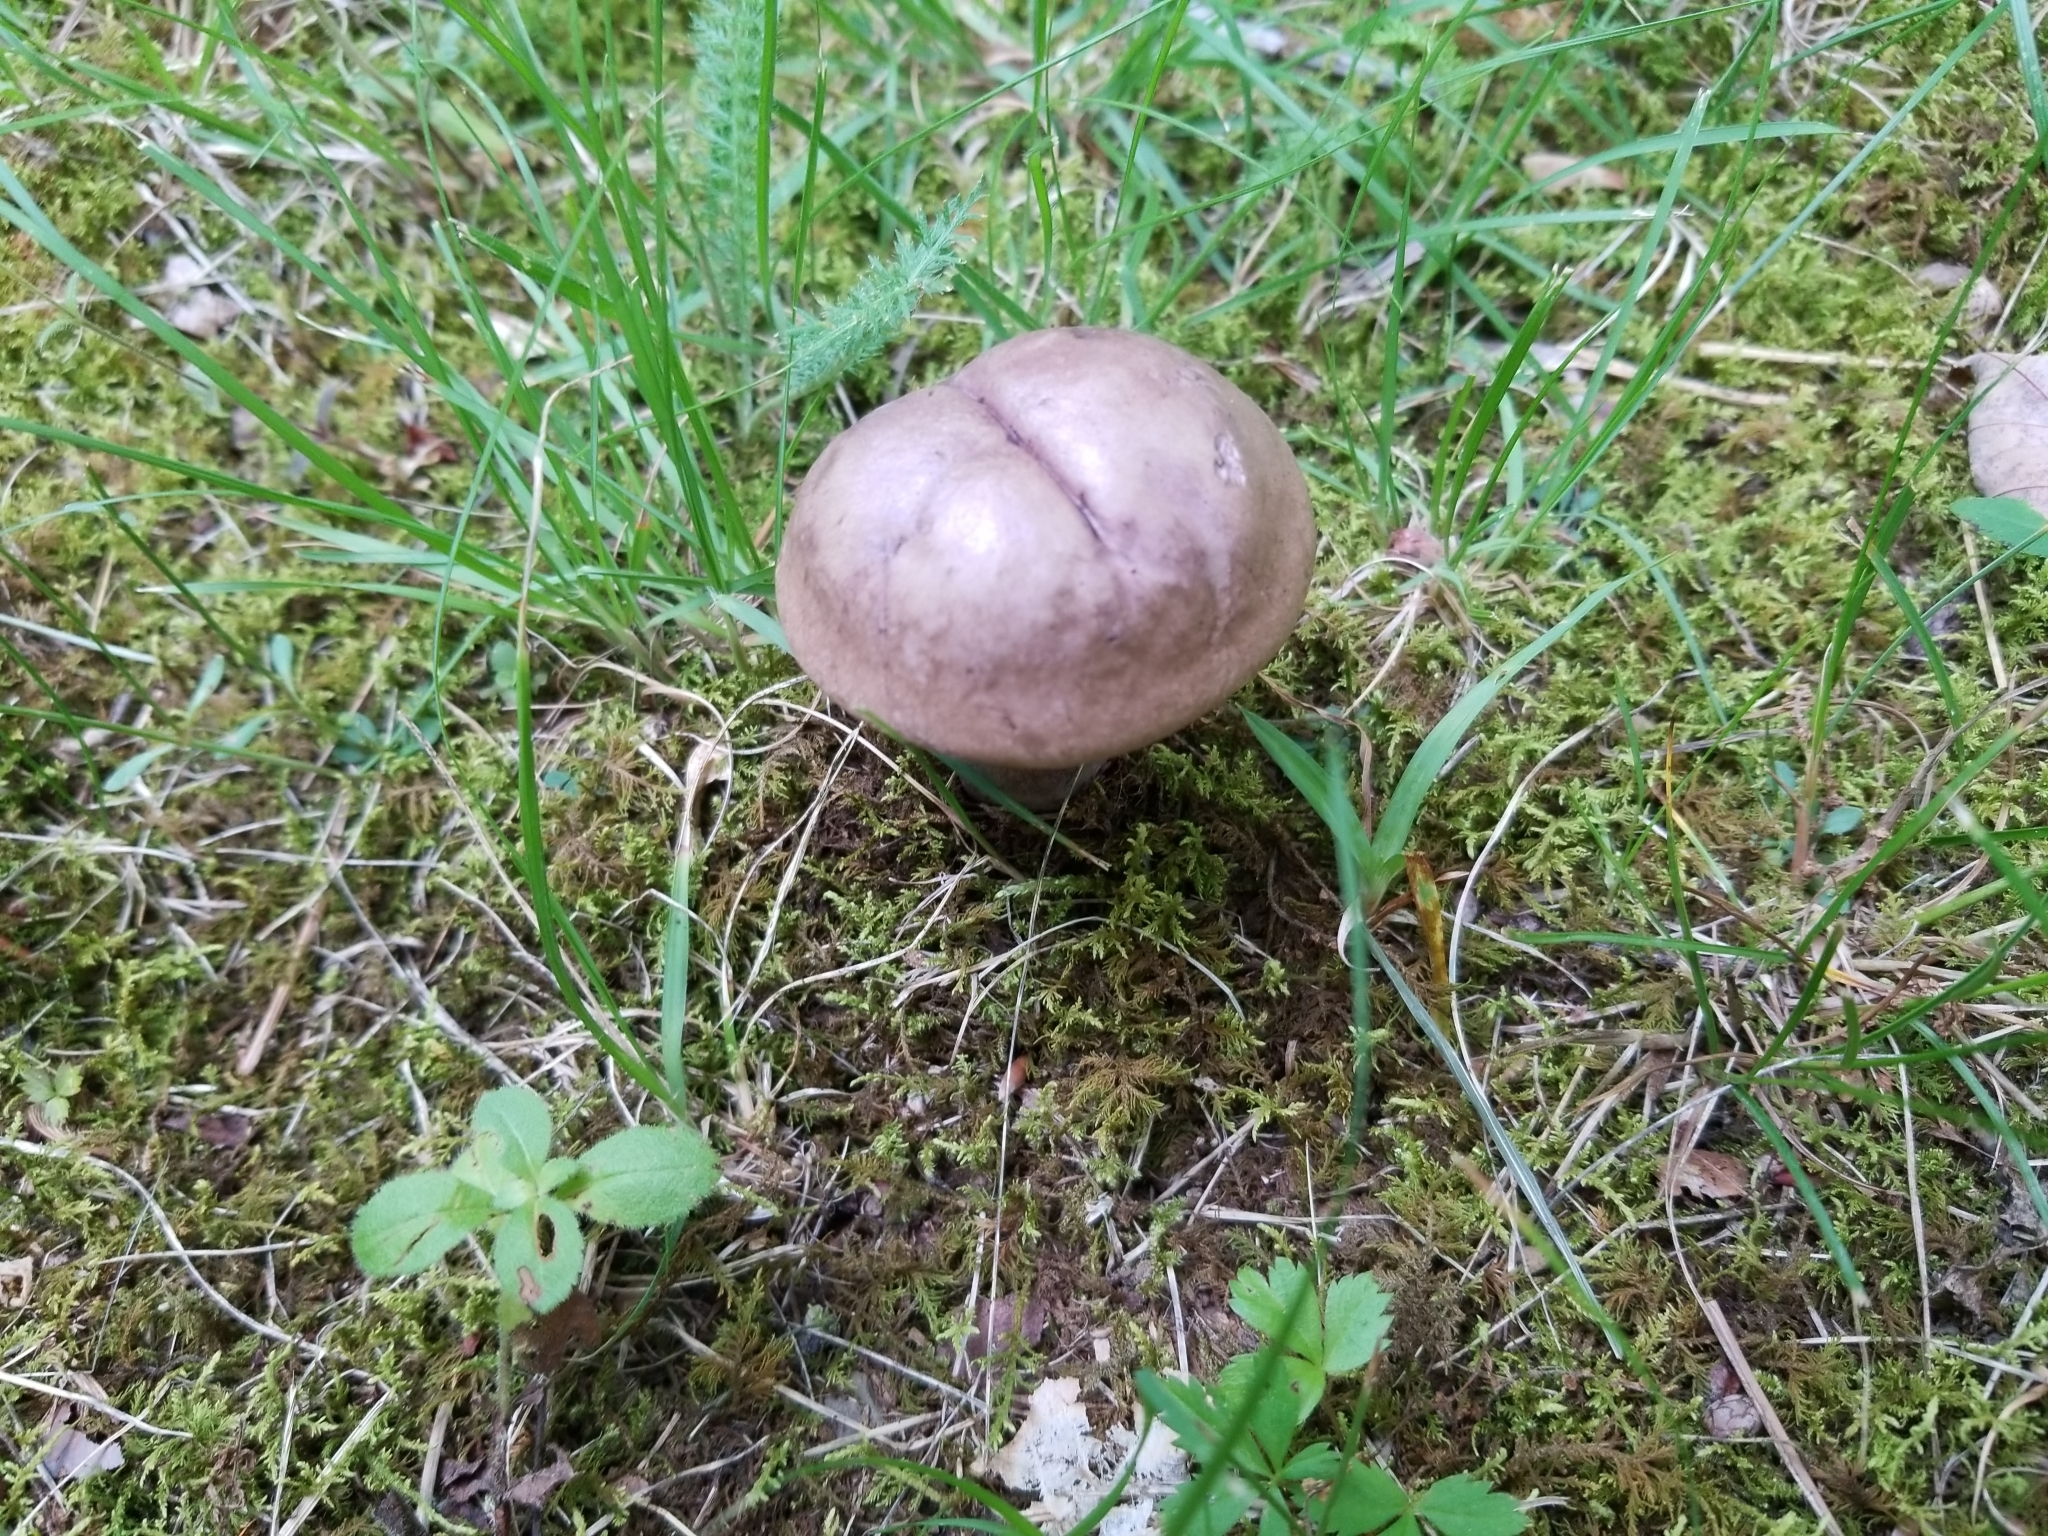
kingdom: Fungi
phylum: Basidiomycota
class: Agaricomycetes
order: Boletales
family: Boletaceae
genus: Tylopilus
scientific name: Tylopilus plumbeoviolaceus
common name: Violet gray bolete
